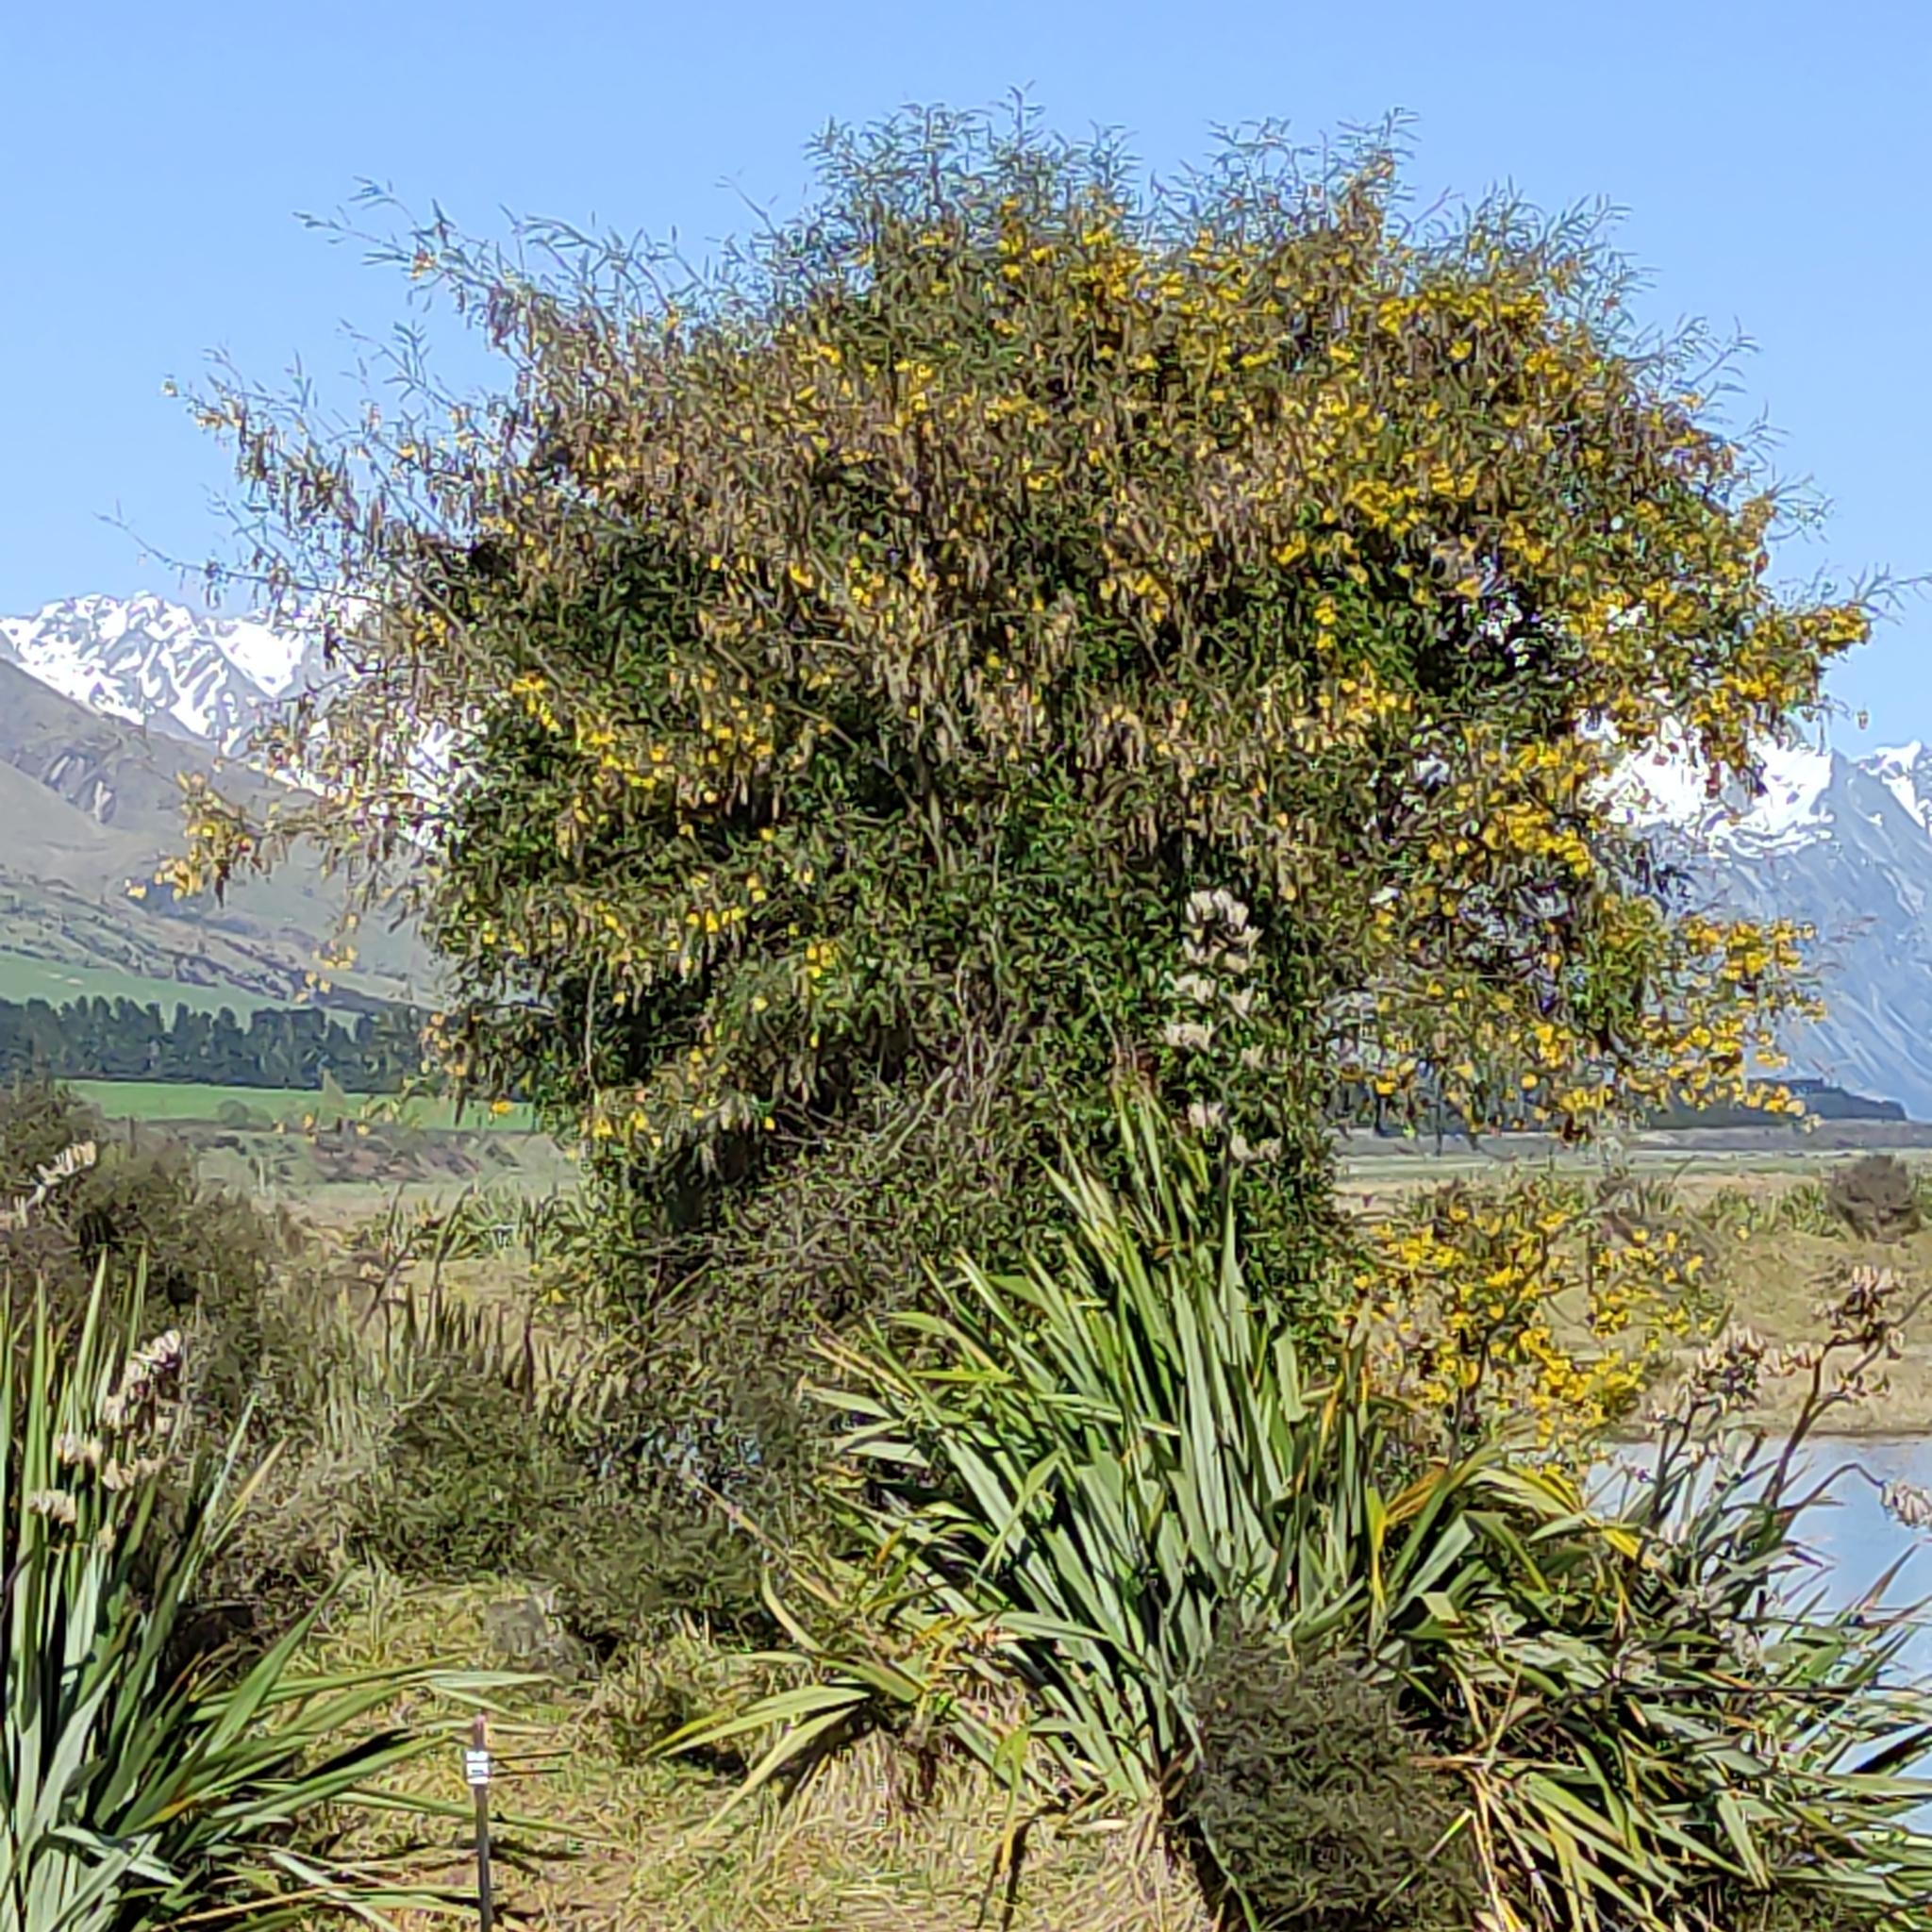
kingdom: Plantae
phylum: Tracheophyta
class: Magnoliopsida
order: Fabales
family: Fabaceae
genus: Sophora
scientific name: Sophora microphylla
